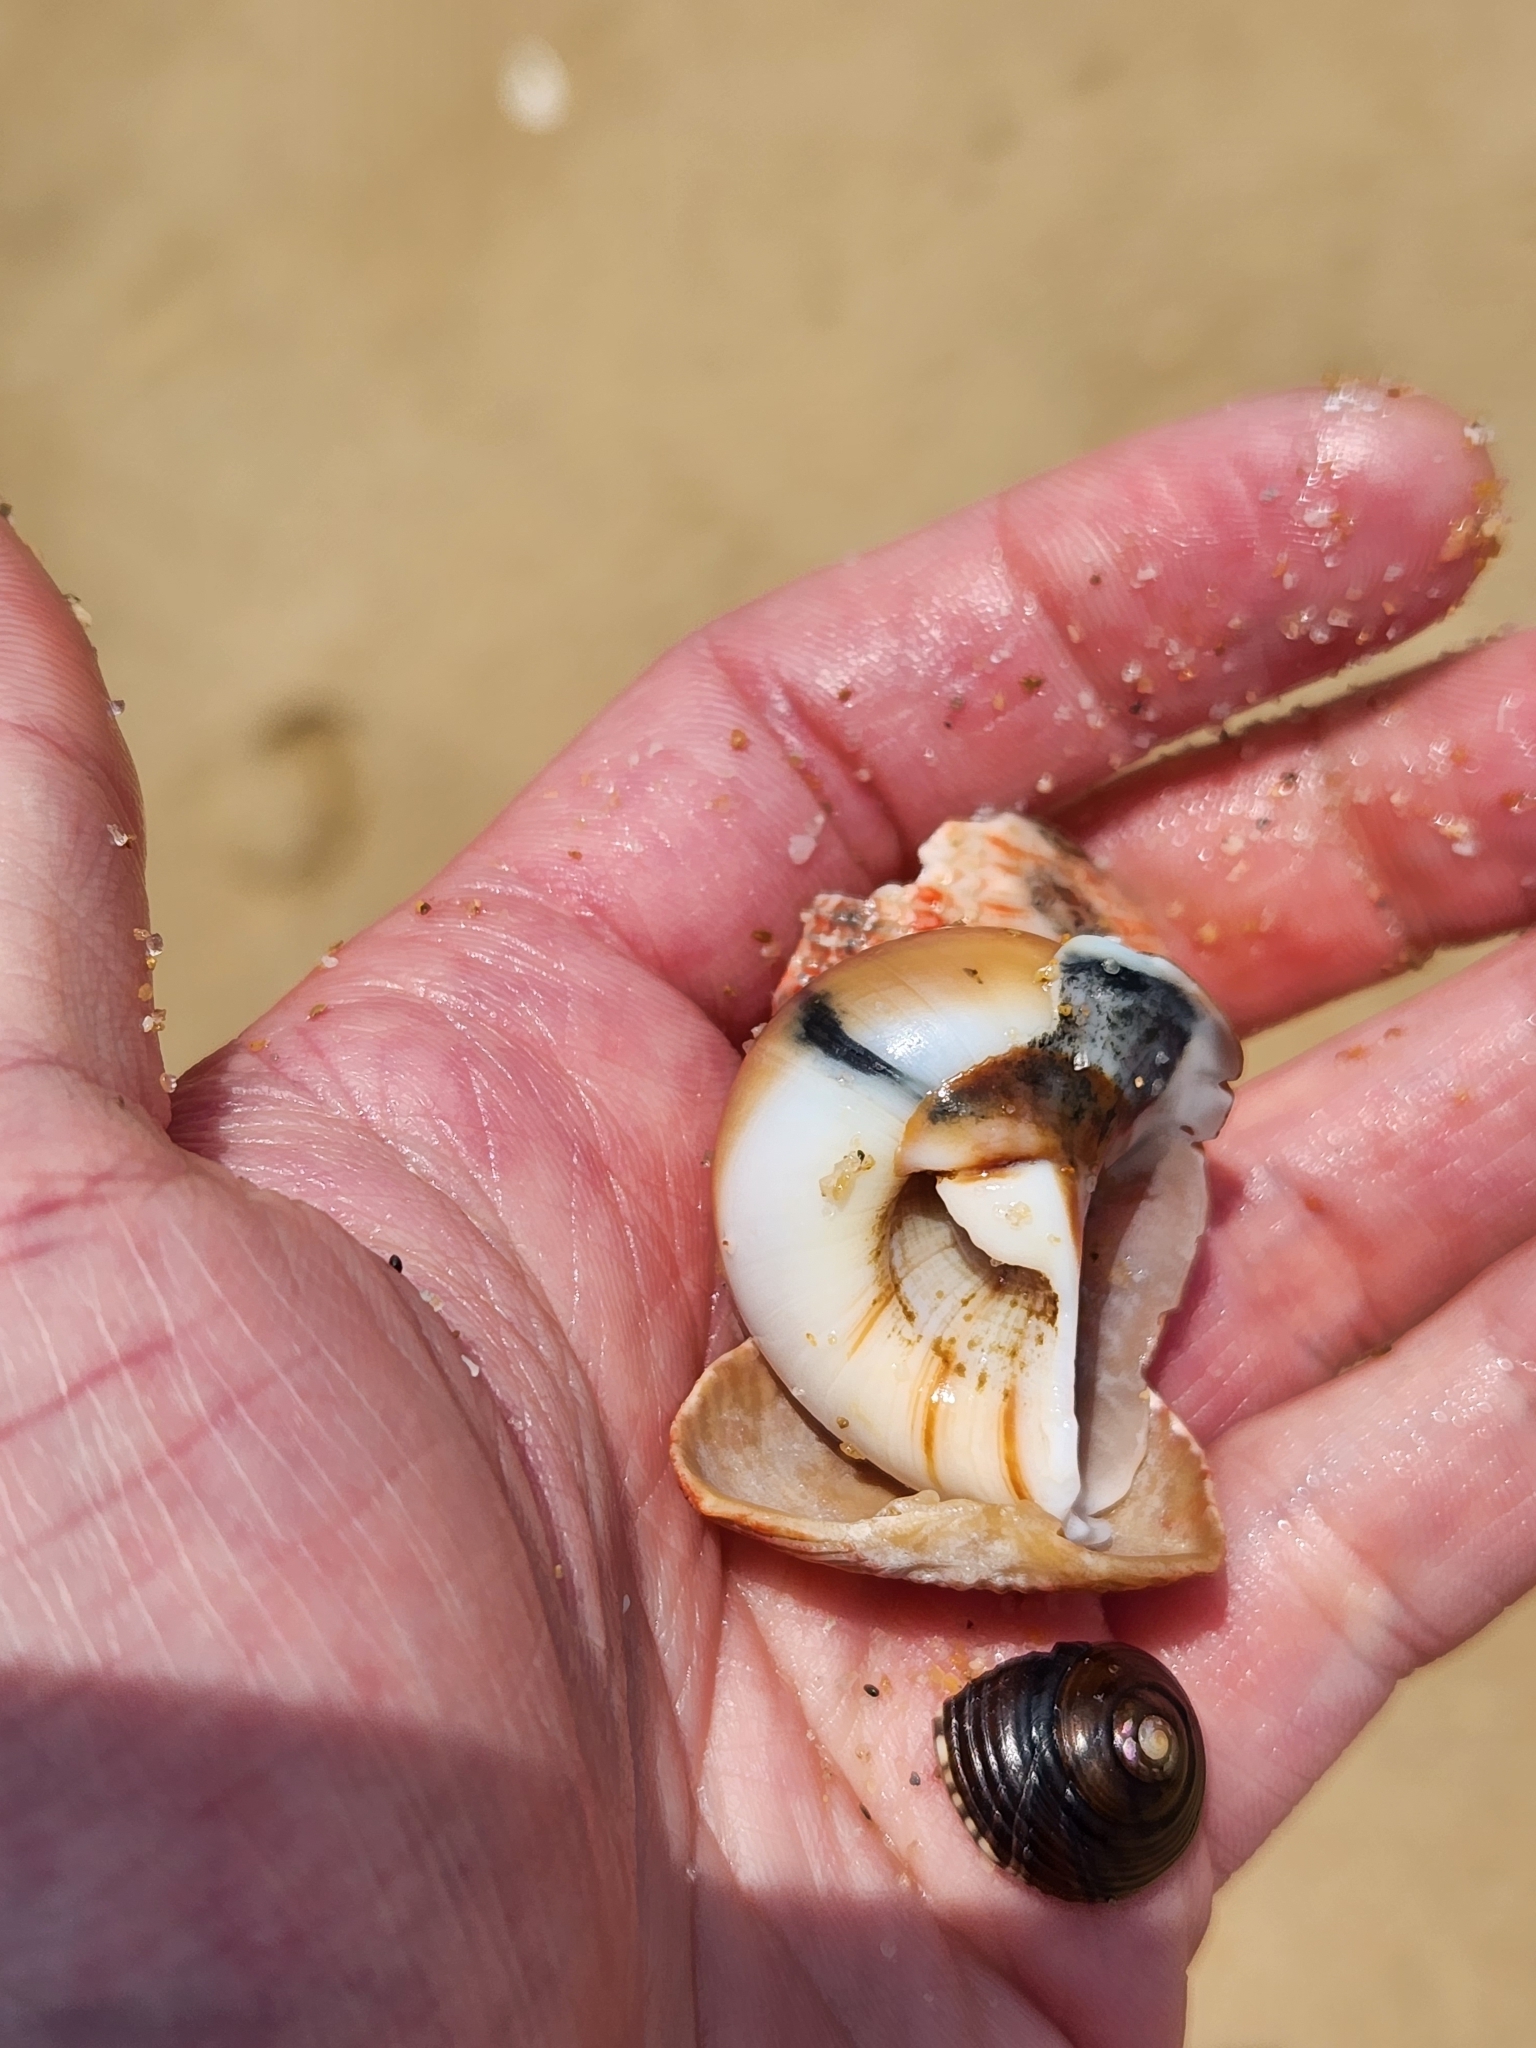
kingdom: Animalia
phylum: Mollusca
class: Gastropoda
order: Littorinimorpha
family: Naticidae
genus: Neverita
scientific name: Neverita didyma
